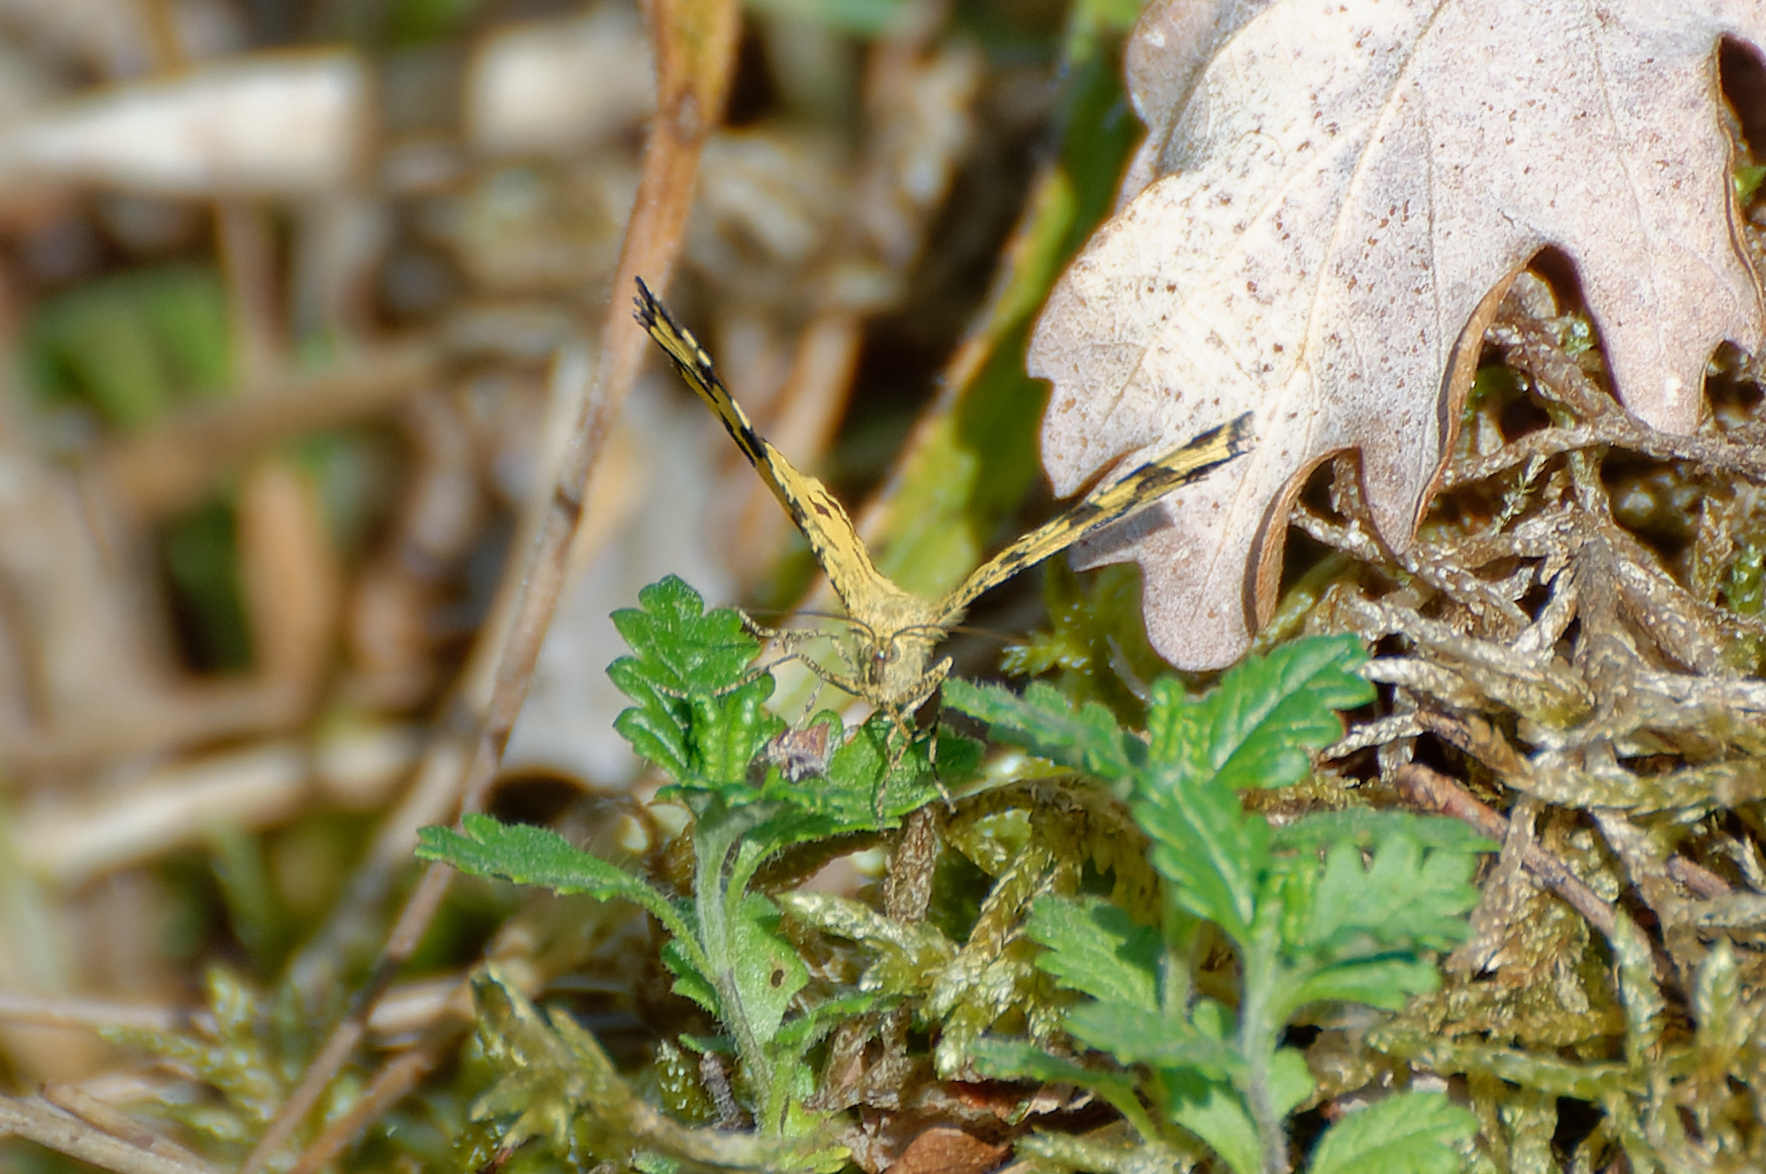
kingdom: Animalia
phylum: Arthropoda
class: Insecta
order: Lepidoptera
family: Geometridae
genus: Pseudopanthera
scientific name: Pseudopanthera macularia
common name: Speckled yellow
